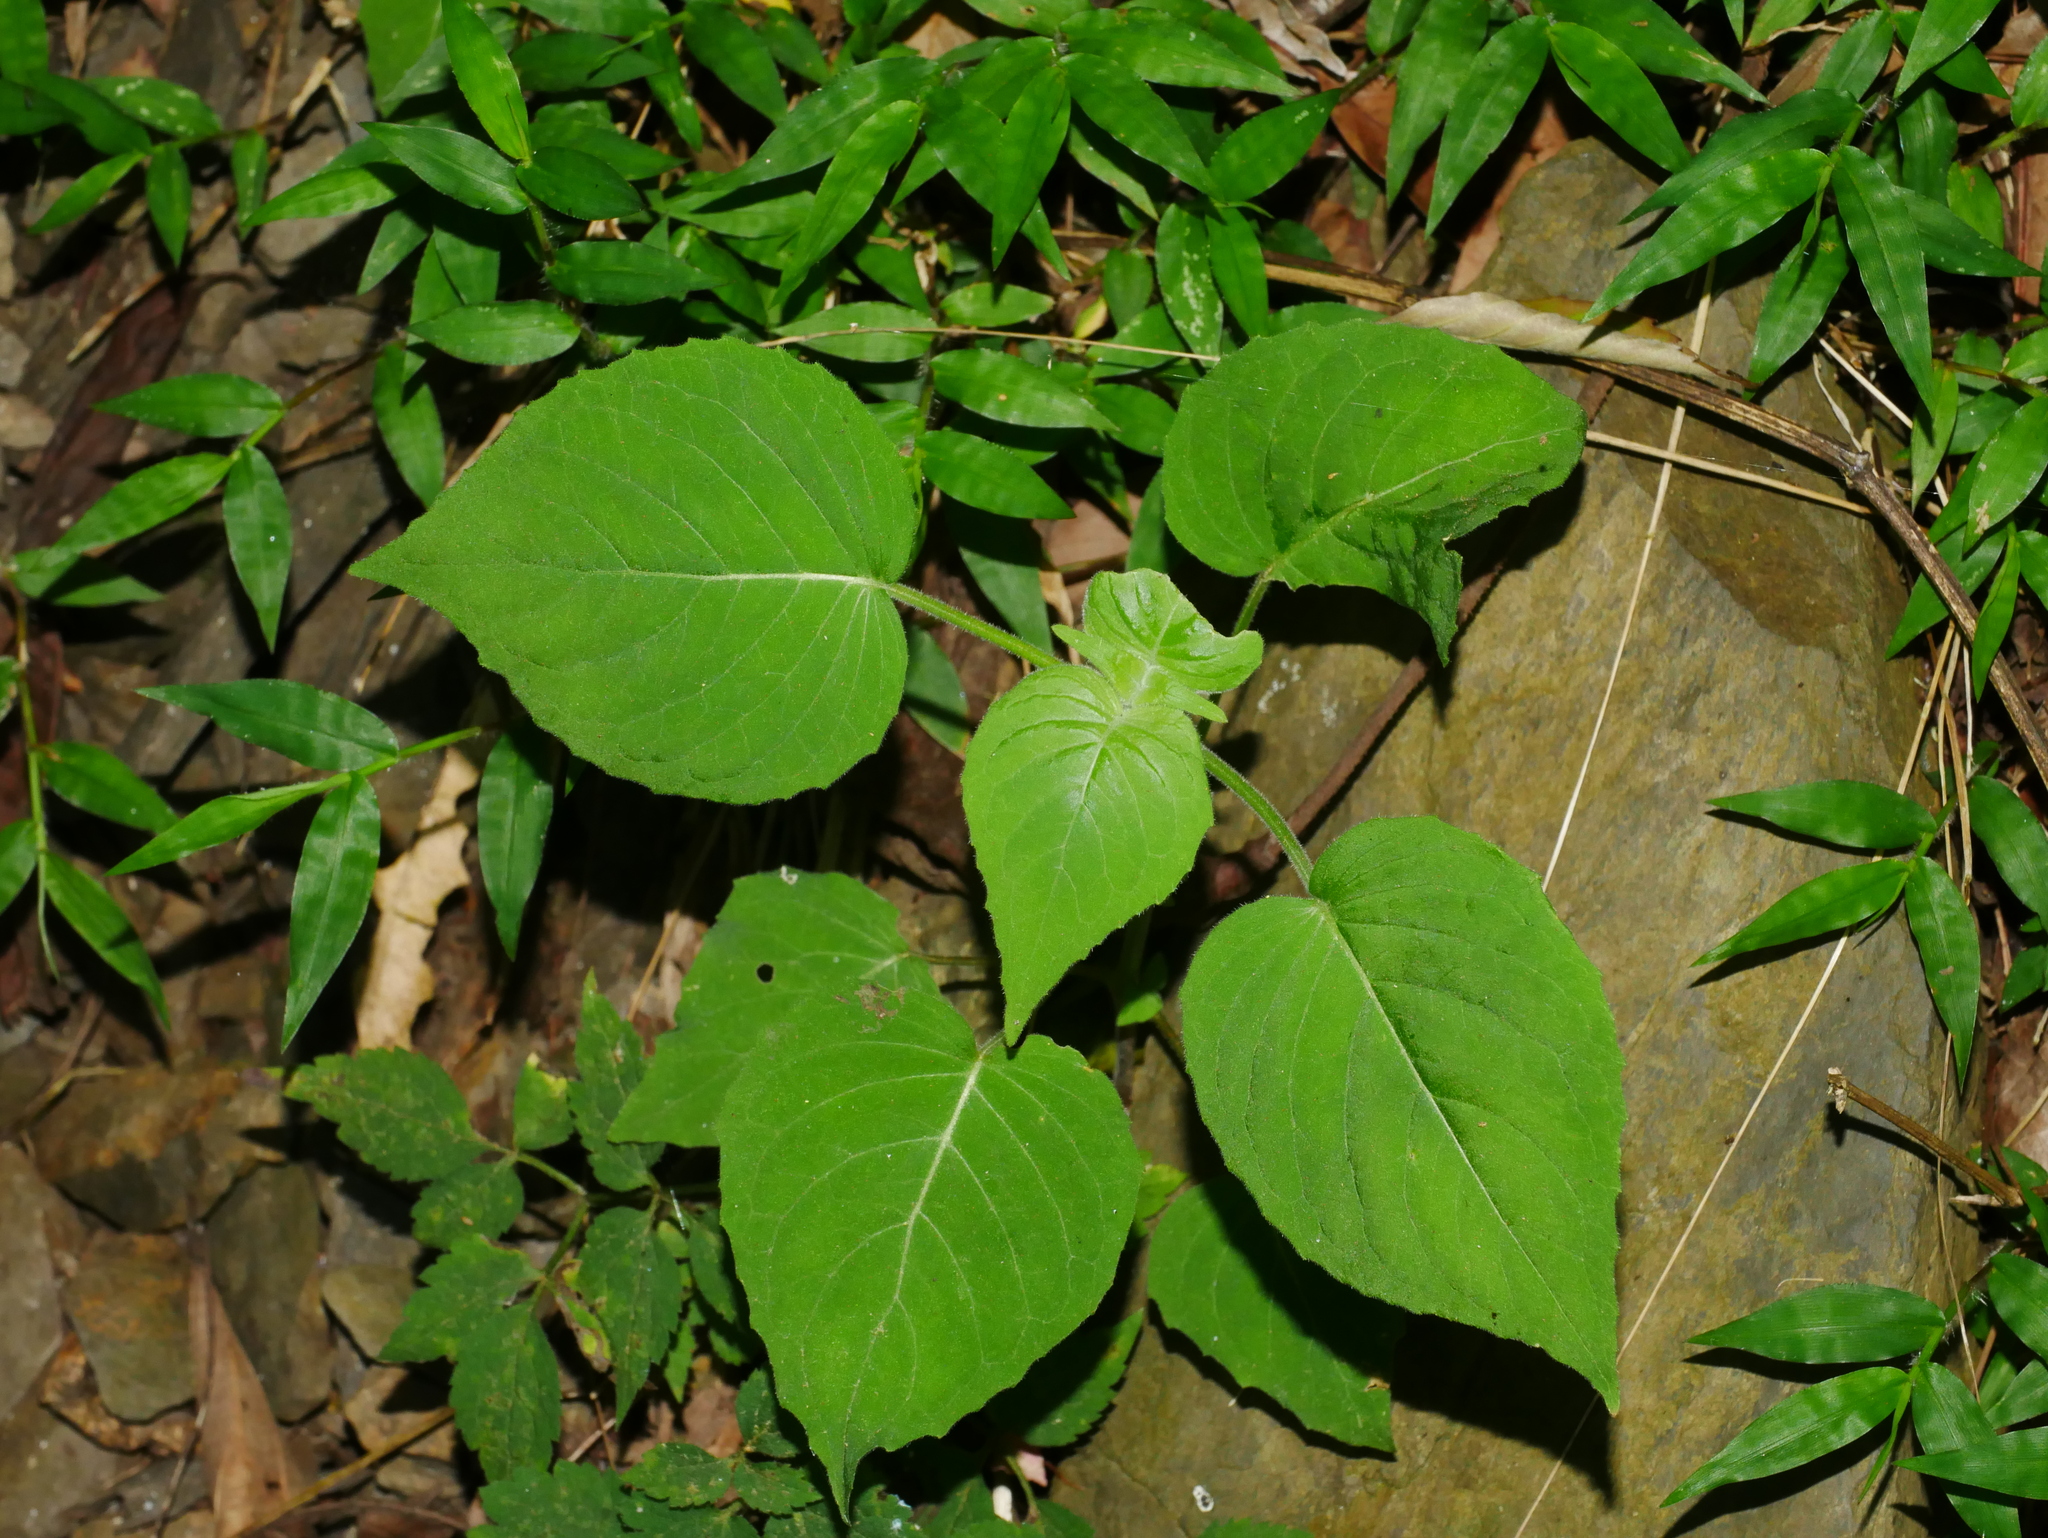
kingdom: Plantae
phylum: Tracheophyta
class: Magnoliopsida
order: Myrtales
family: Onagraceae
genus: Circaea
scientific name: Circaea cordata
